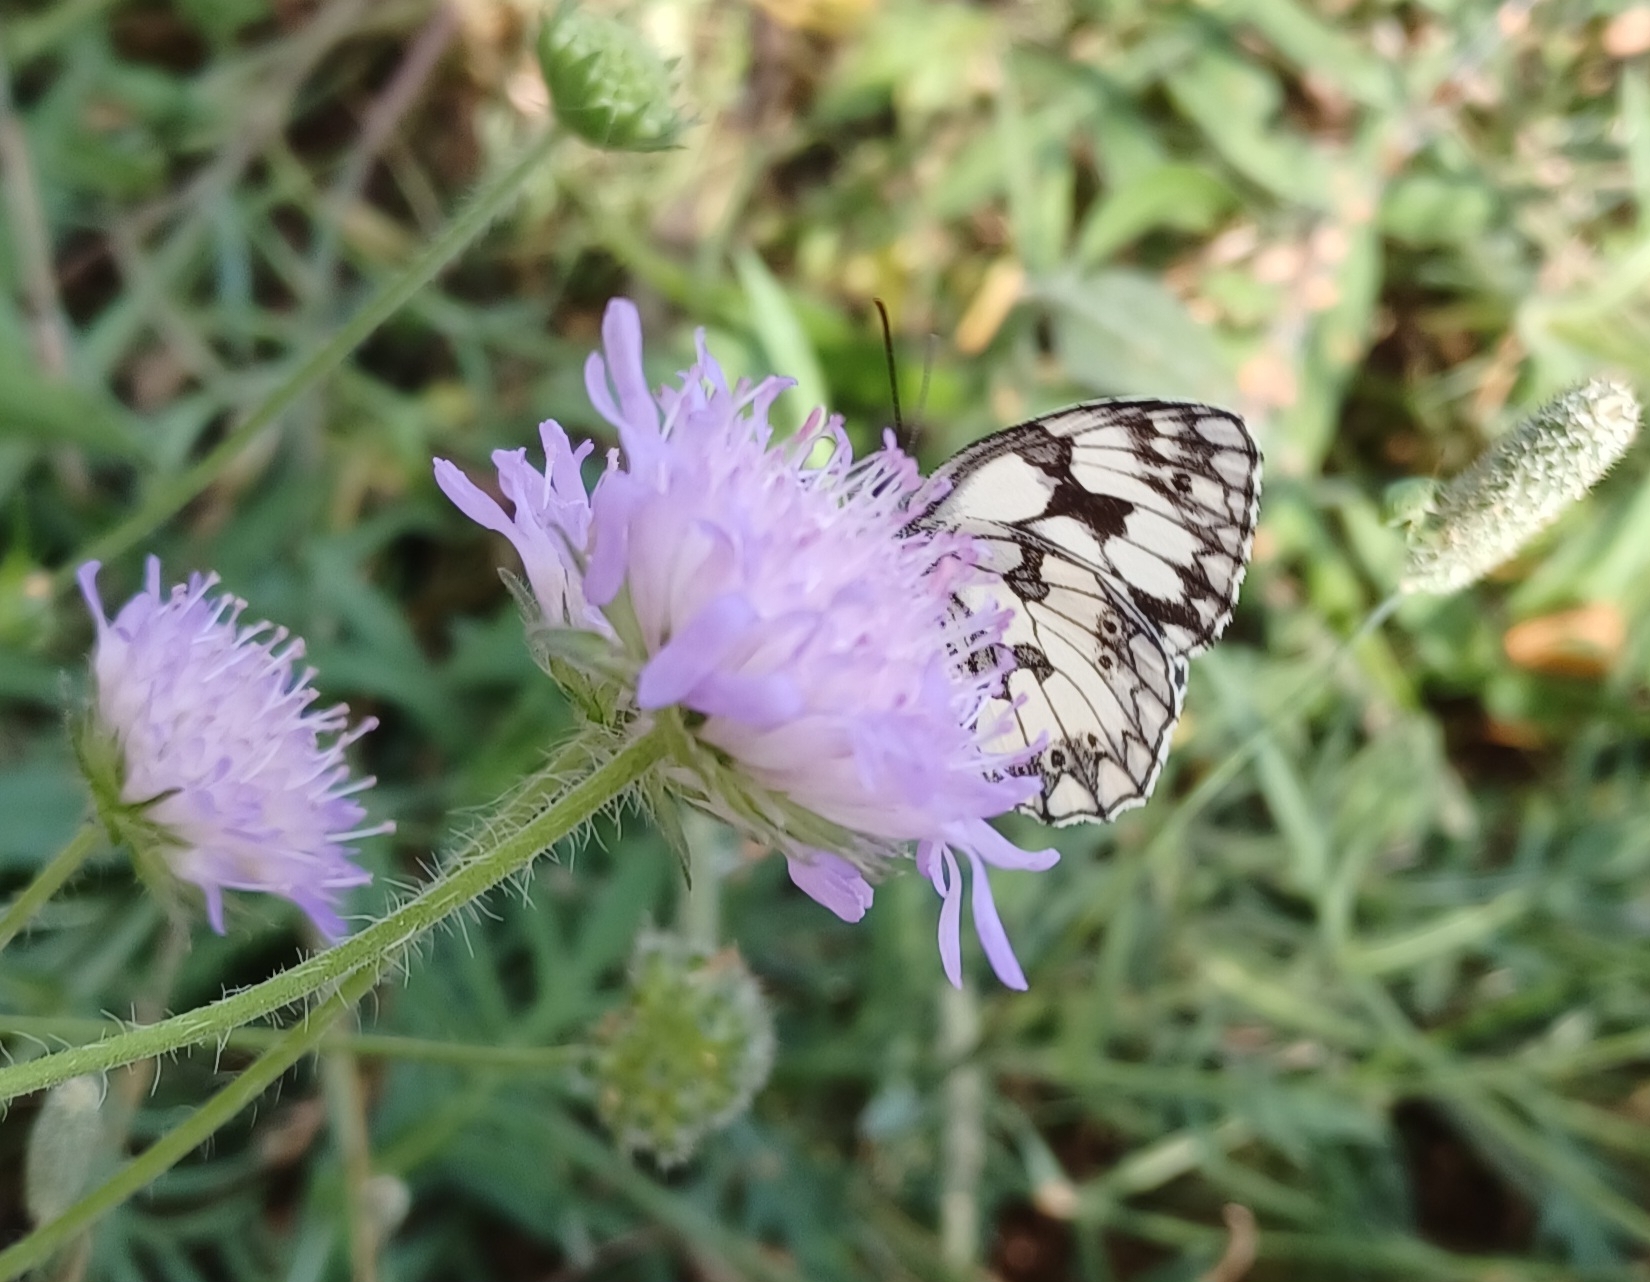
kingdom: Animalia
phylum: Arthropoda
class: Insecta
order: Lepidoptera
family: Nymphalidae
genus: Melanargia
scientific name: Melanargia galathea
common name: Marbled white
